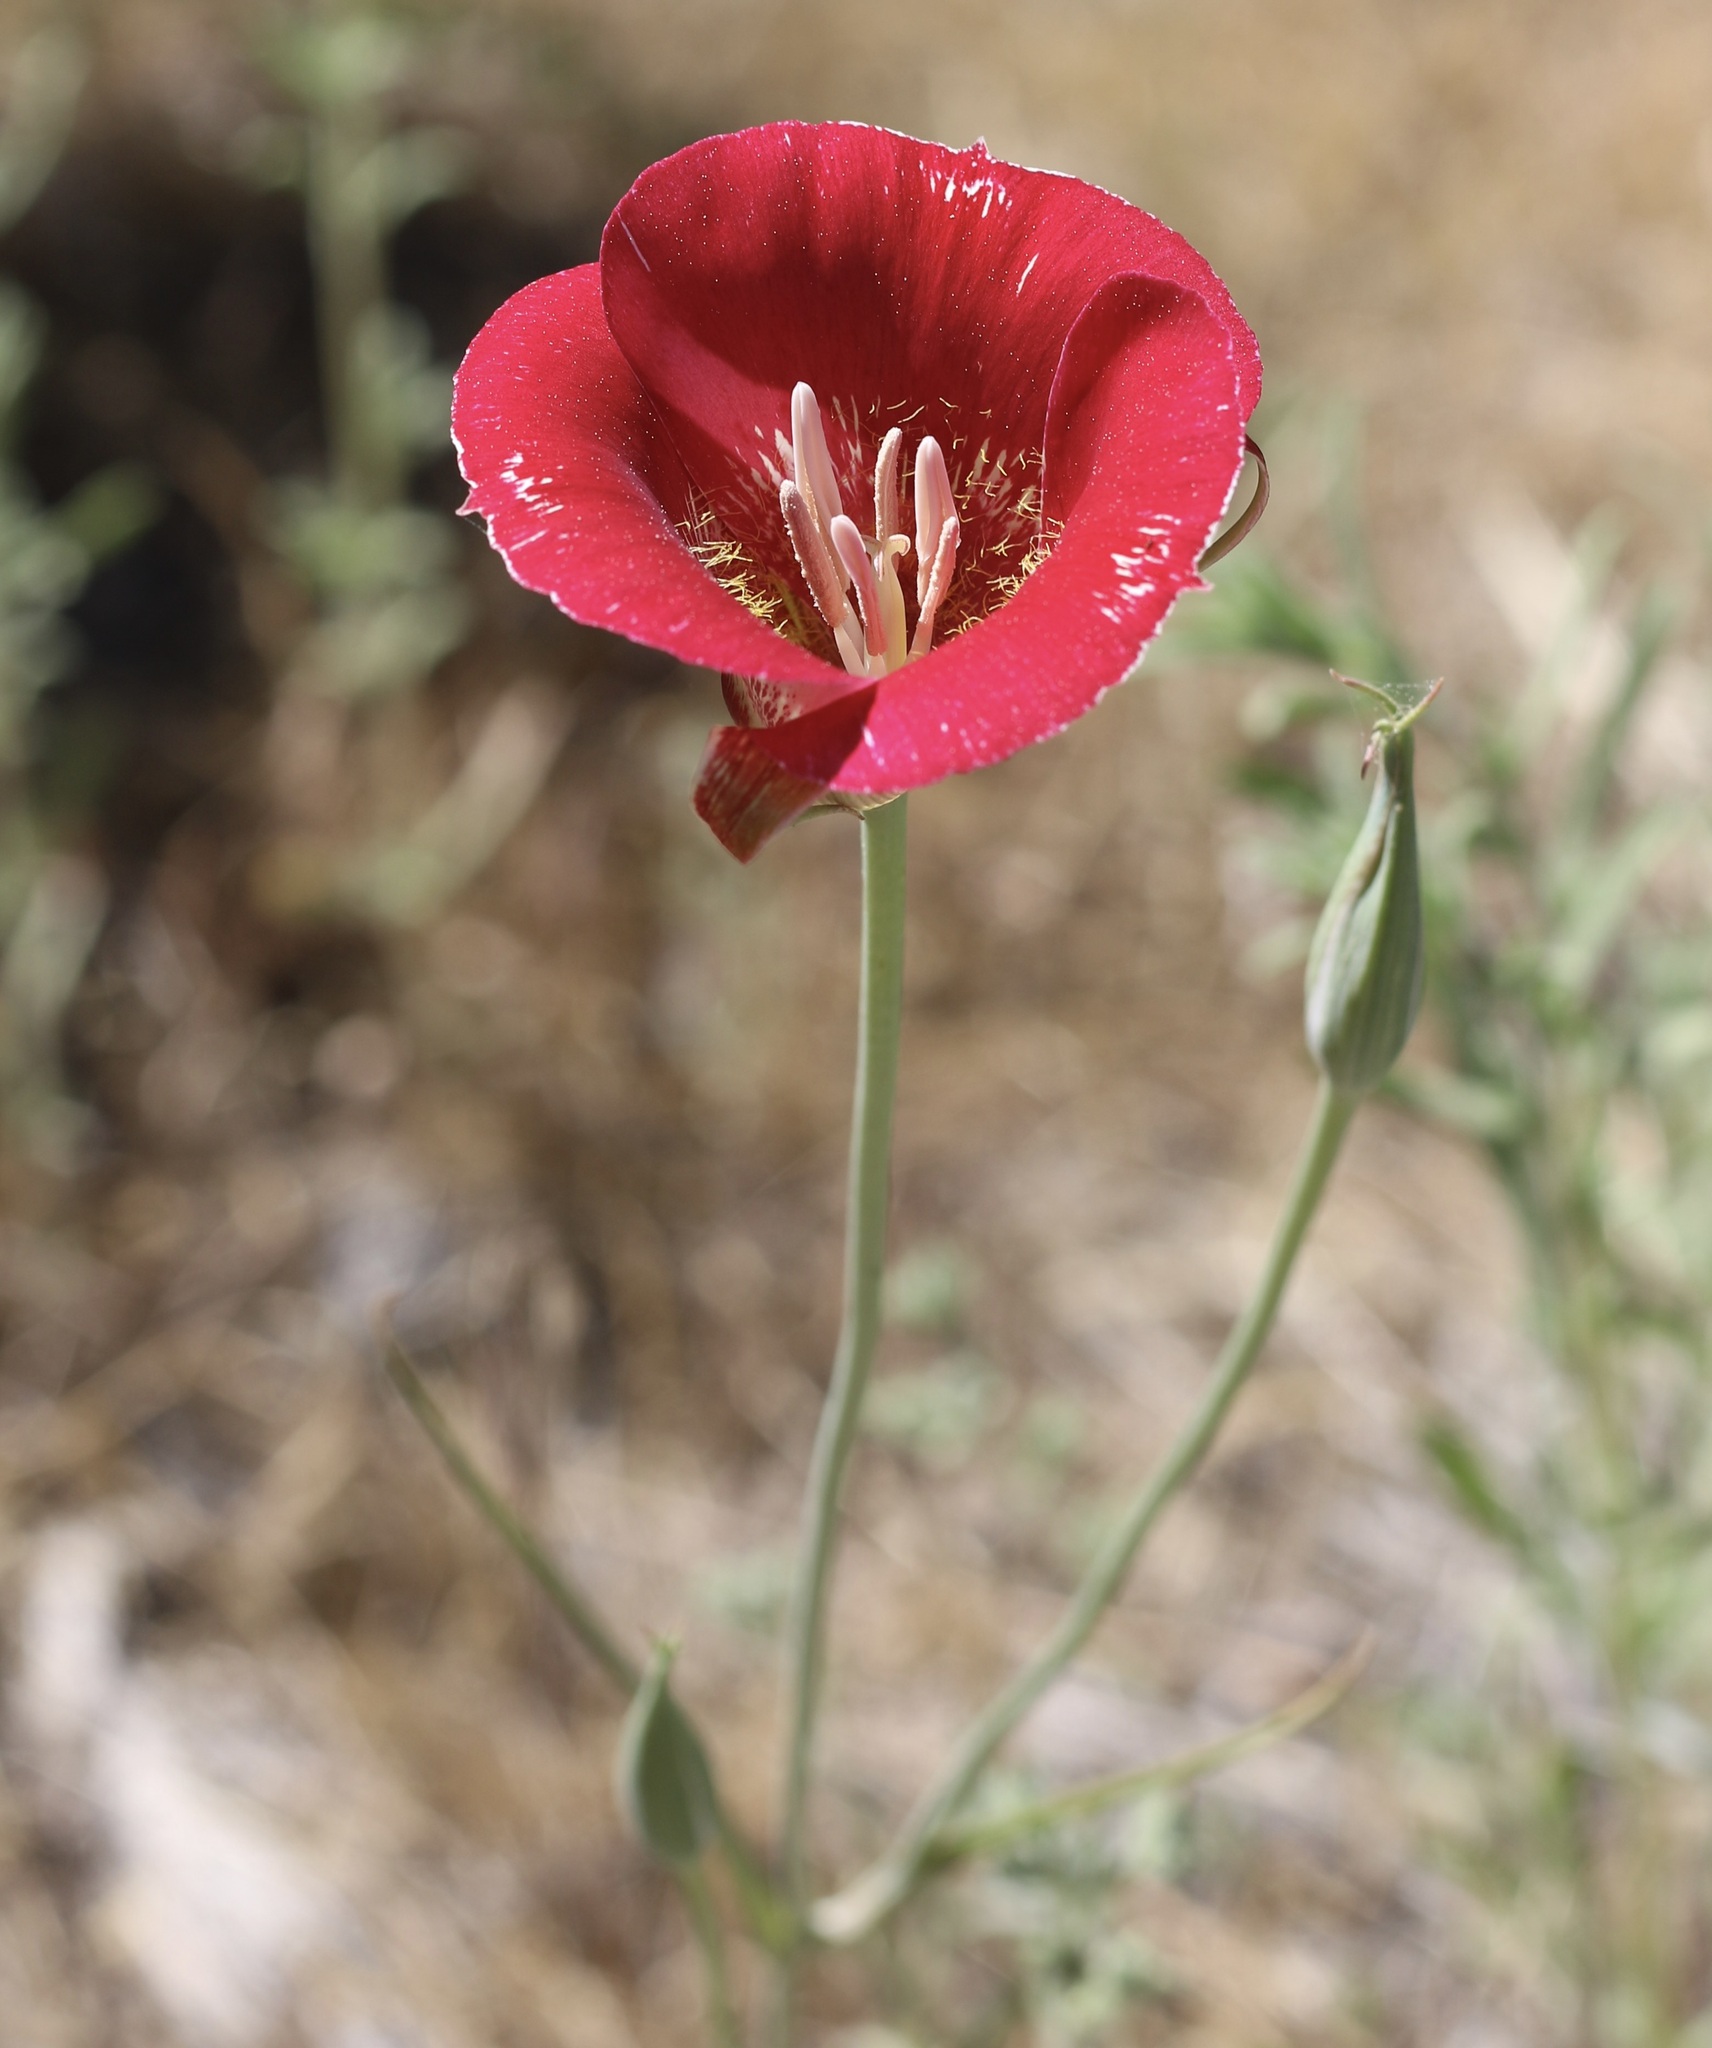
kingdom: Plantae
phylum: Tracheophyta
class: Liliopsida
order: Liliales
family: Liliaceae
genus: Calochortus
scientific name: Calochortus venustus
